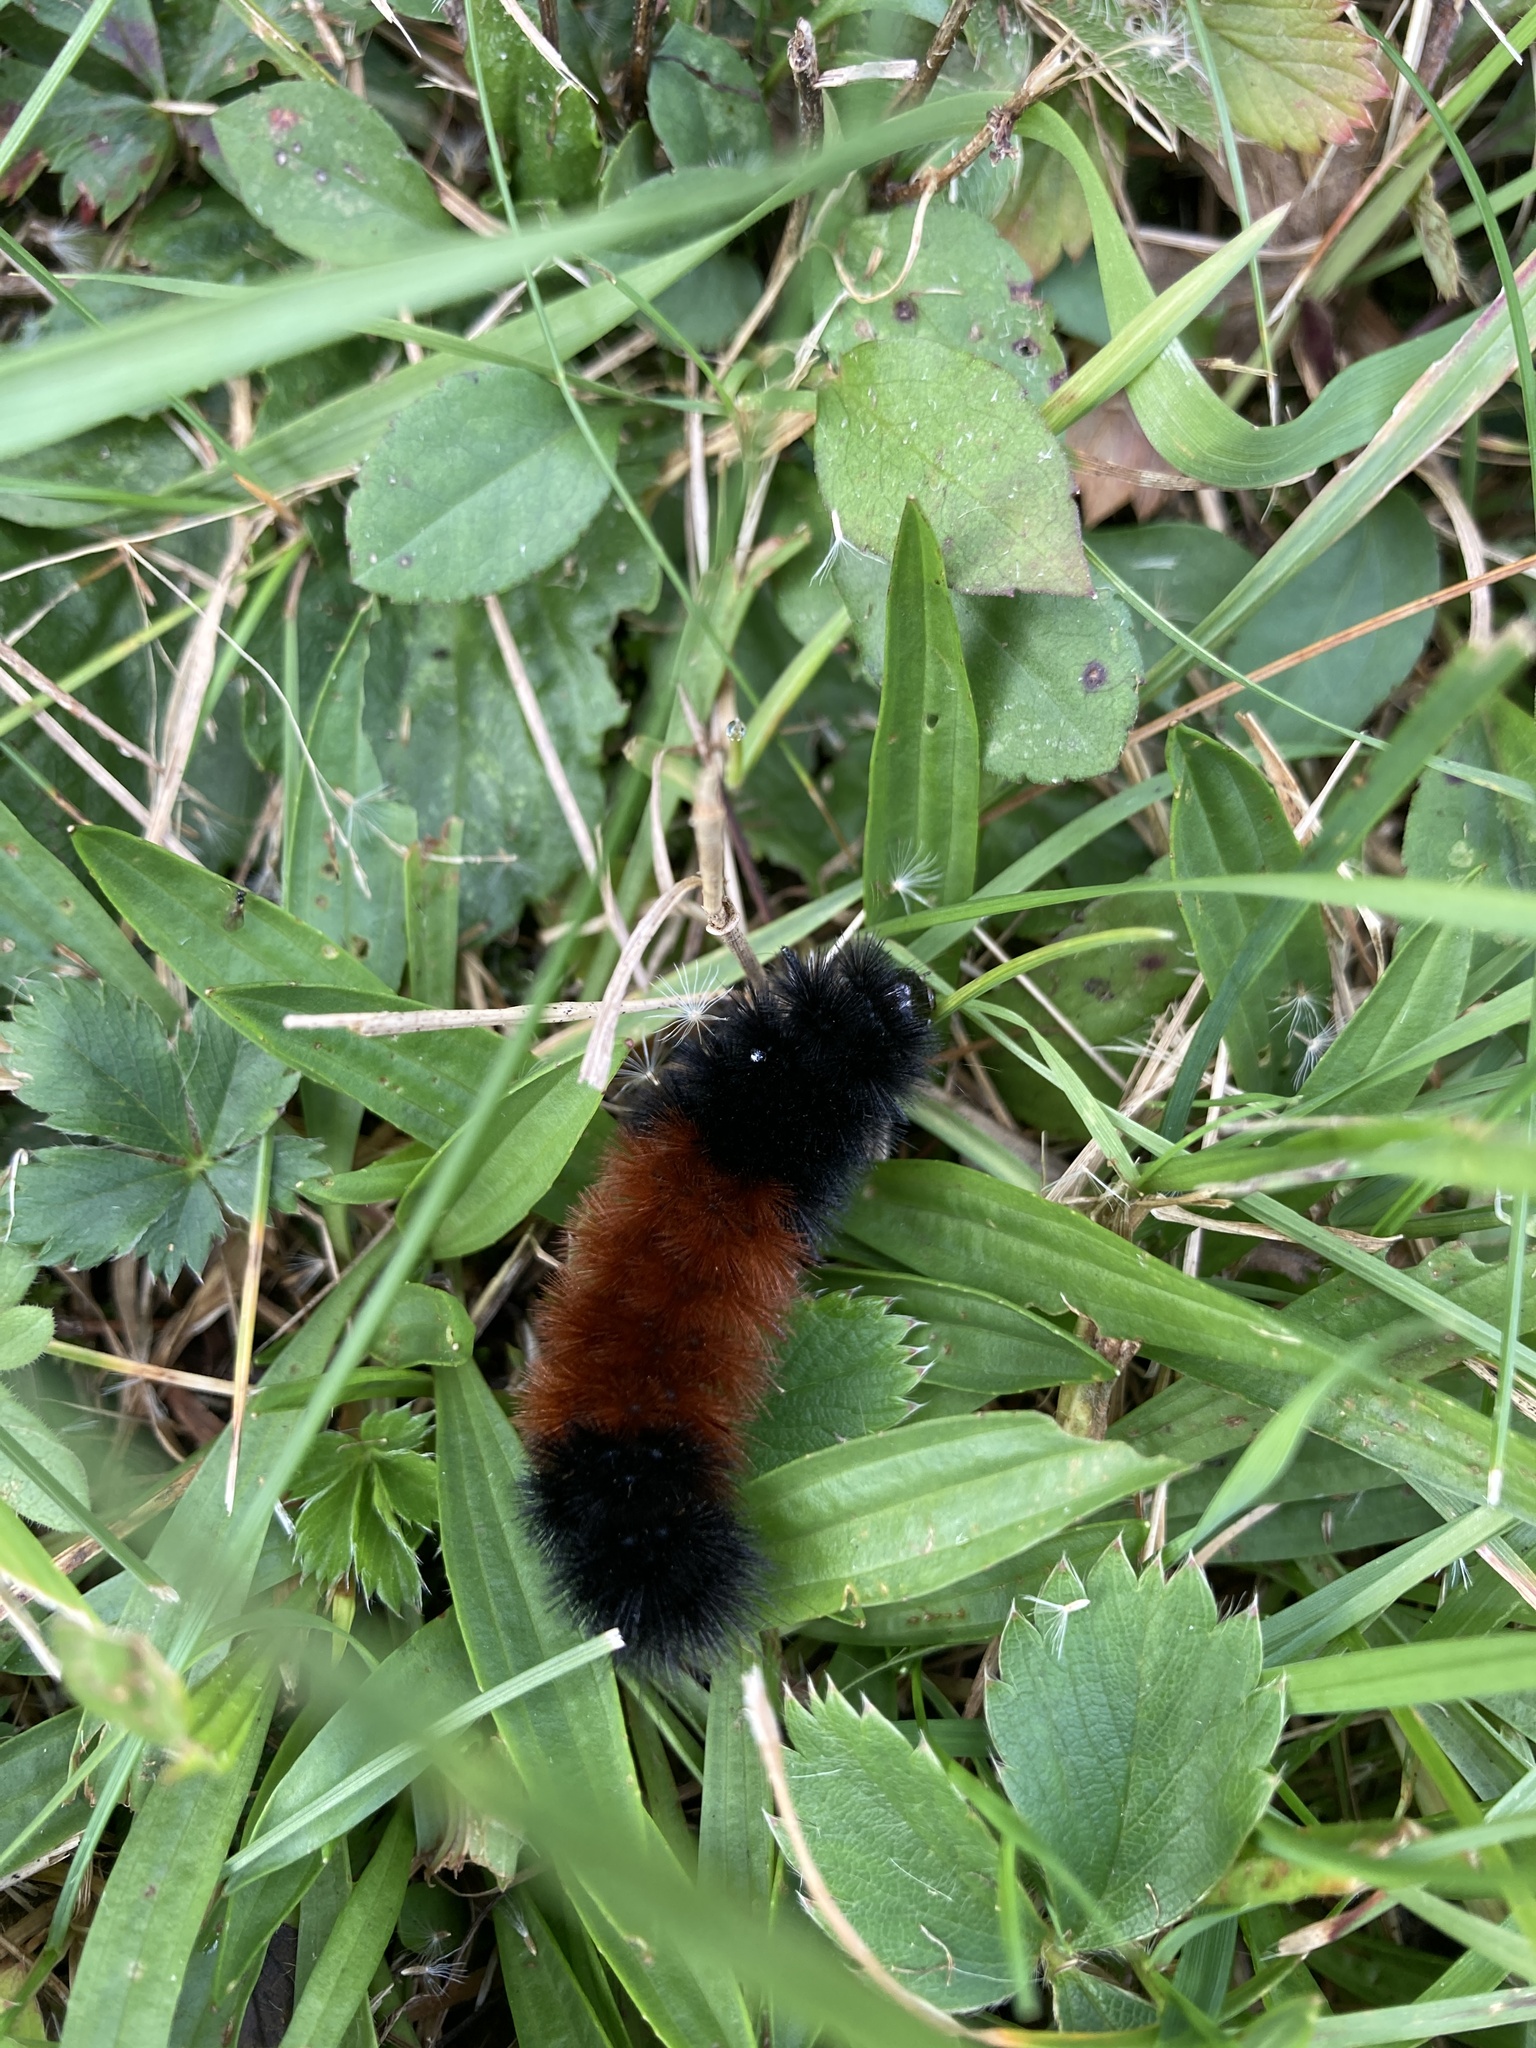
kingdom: Animalia
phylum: Arthropoda
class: Insecta
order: Lepidoptera
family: Erebidae
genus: Pyrrharctia
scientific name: Pyrrharctia isabella
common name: Isabella tiger moth
